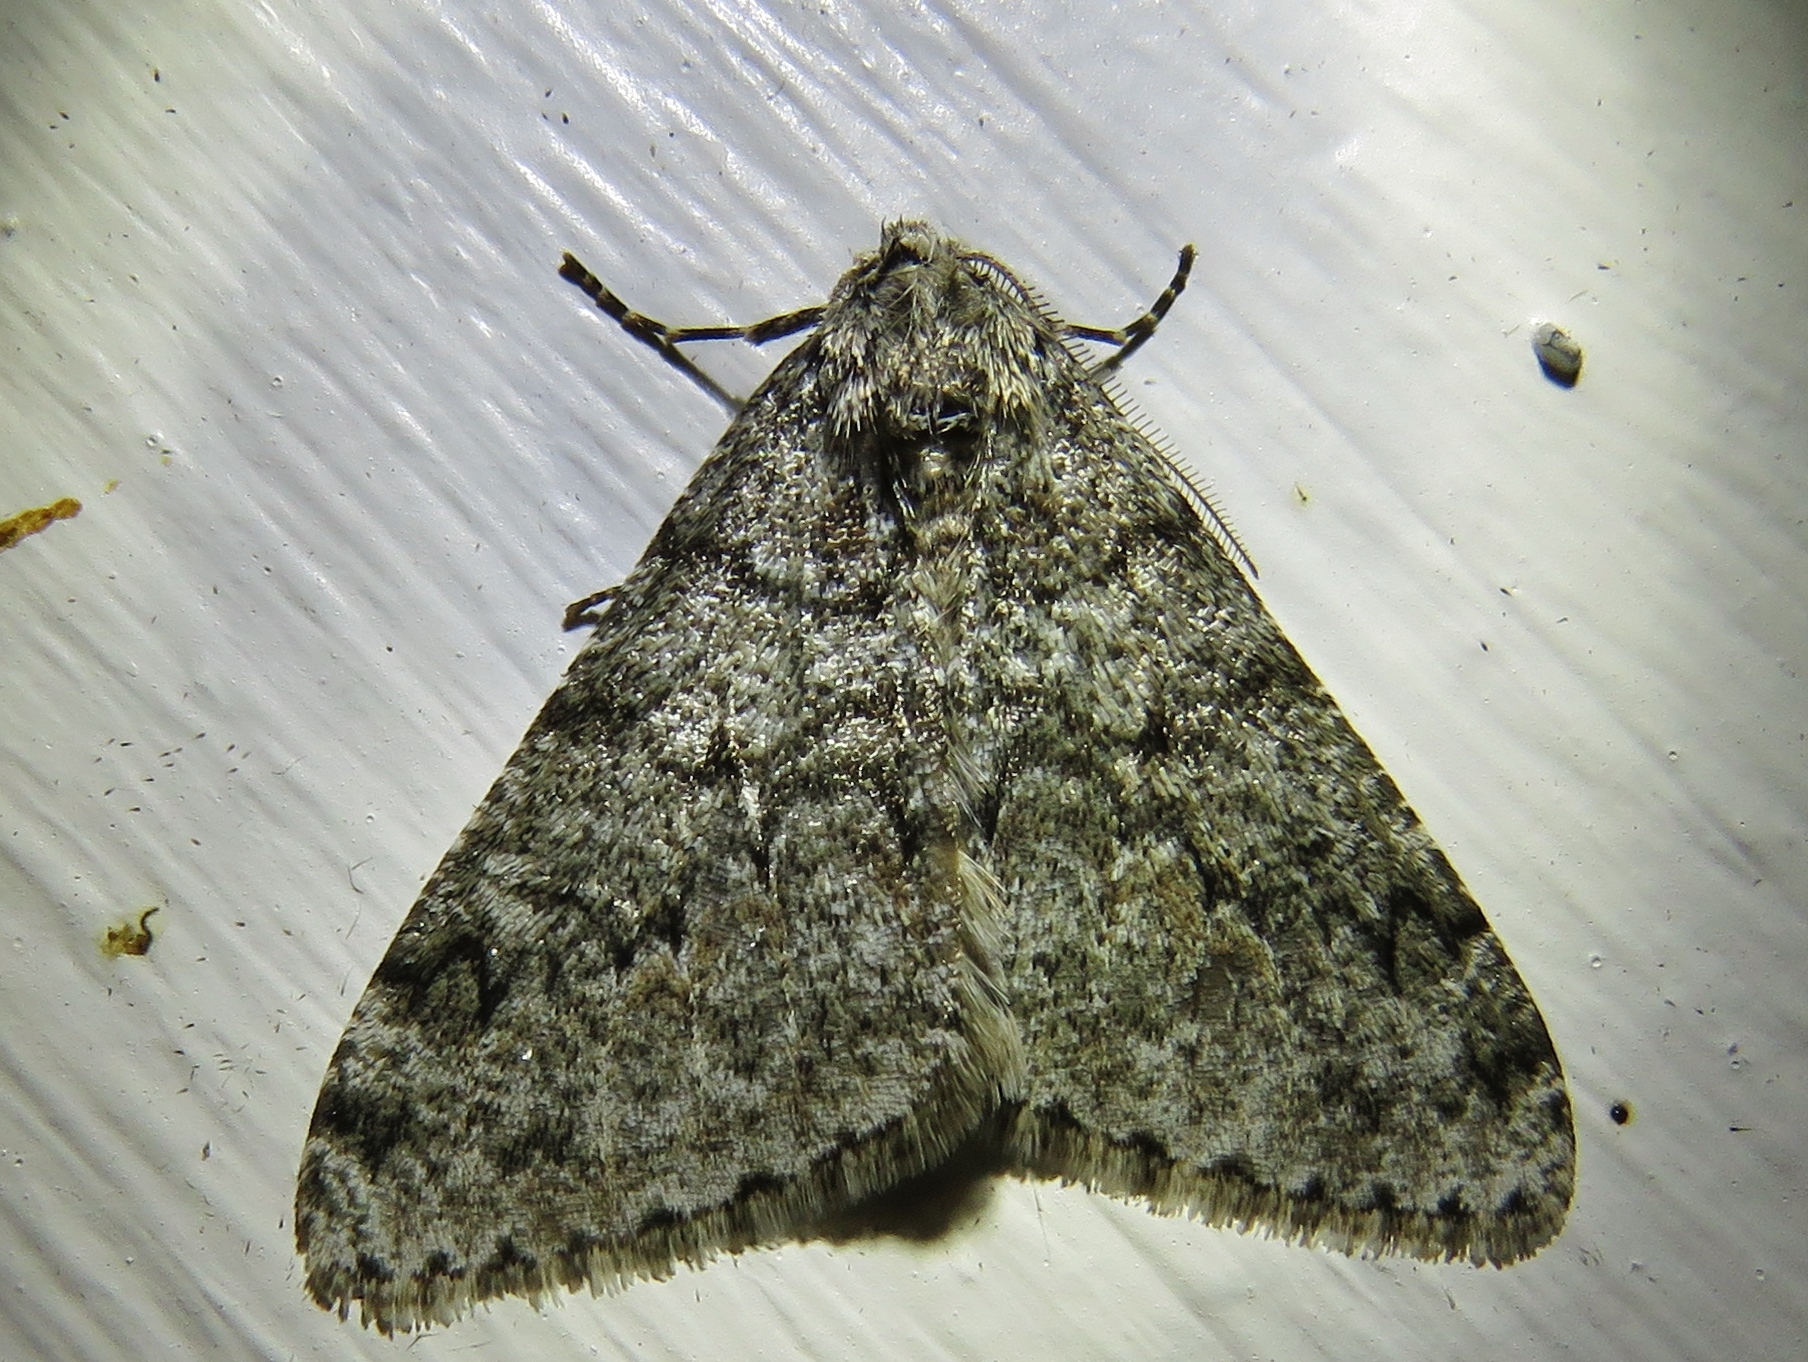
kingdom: Animalia
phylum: Arthropoda
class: Insecta
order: Lepidoptera
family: Geometridae
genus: Phigalia
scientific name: Phigalia denticulata
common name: Toothed phigalia
